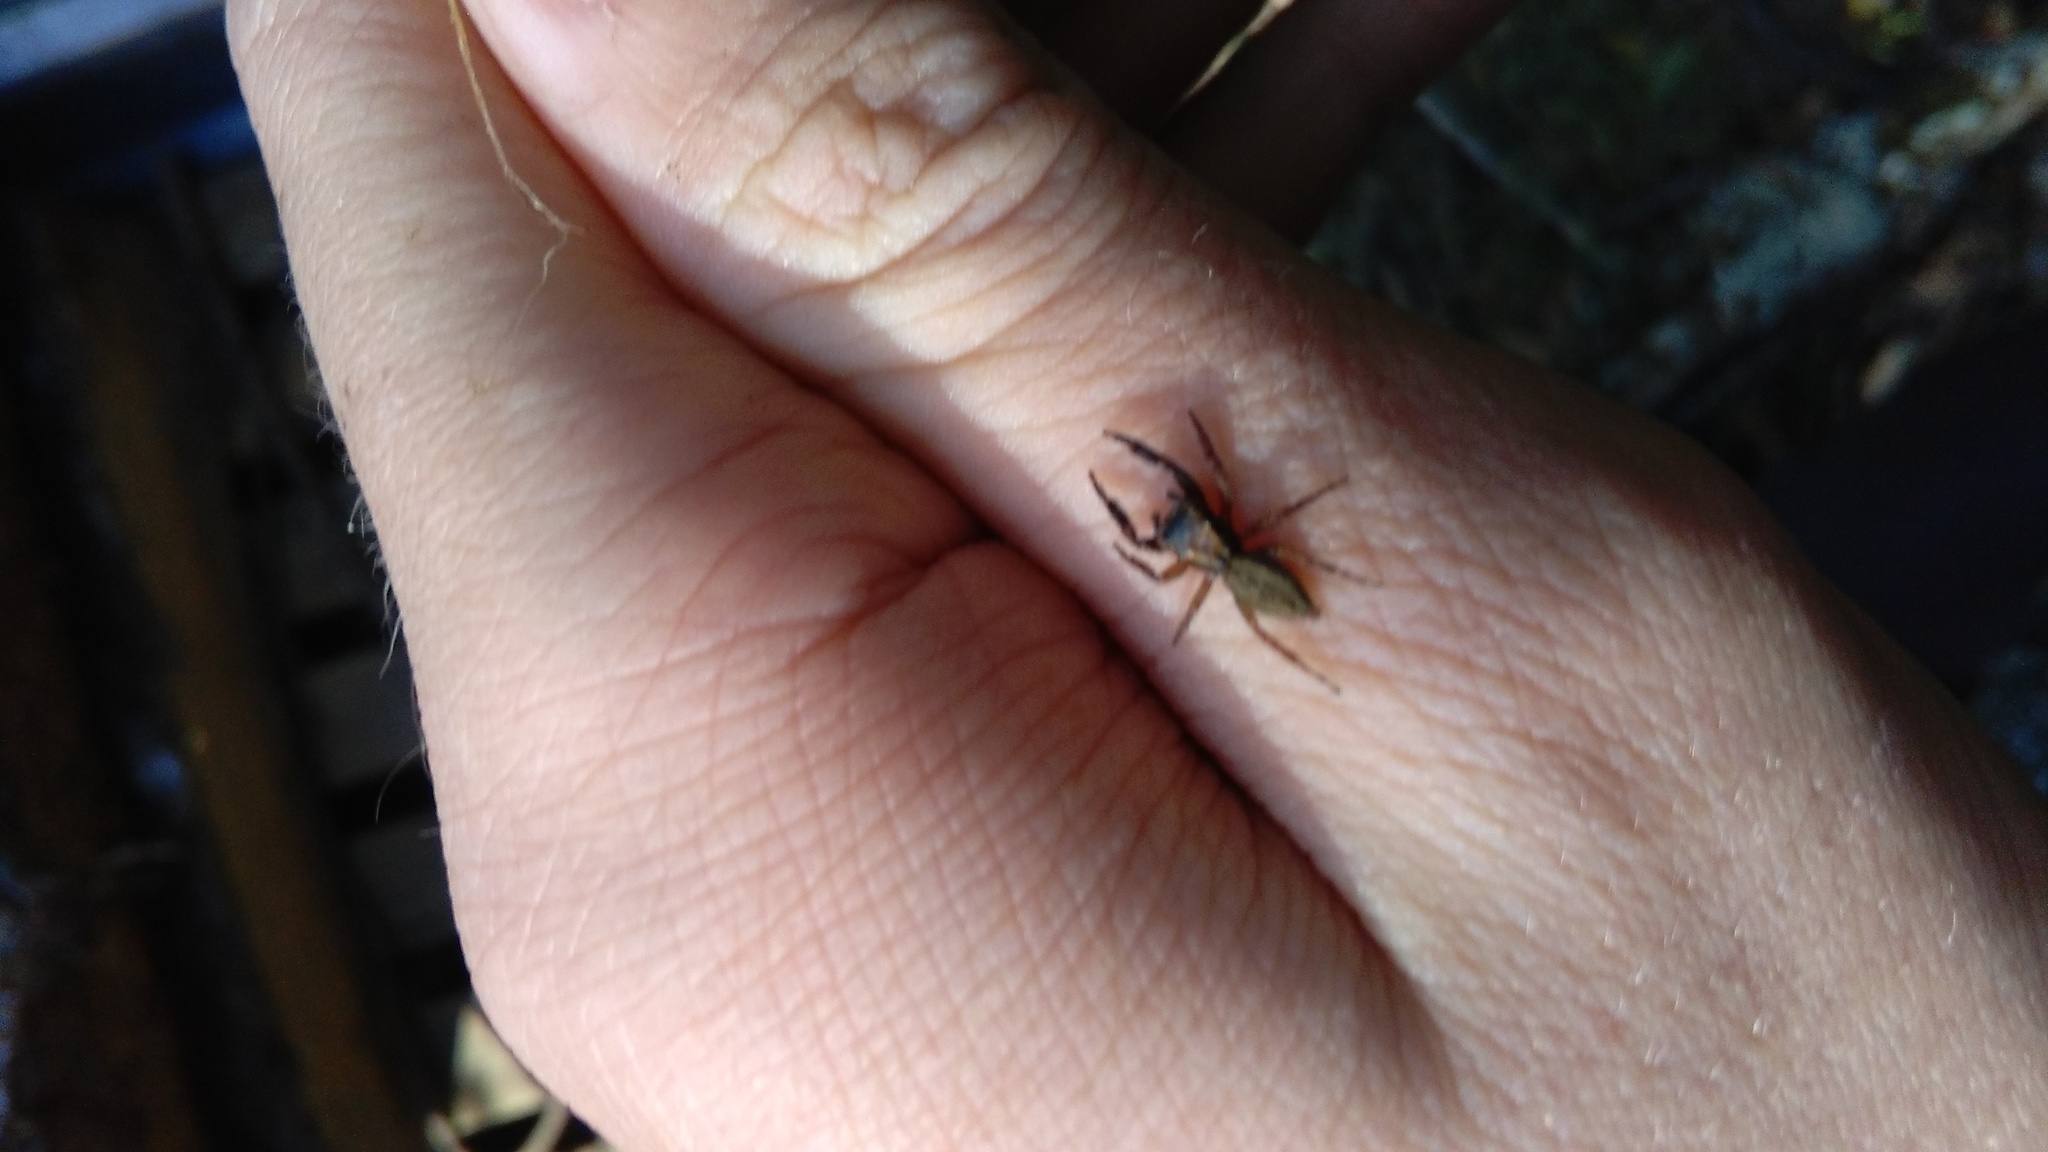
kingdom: Animalia
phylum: Arthropoda
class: Arachnida
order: Araneae
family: Salticidae
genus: Trite
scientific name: Trite auricoma
